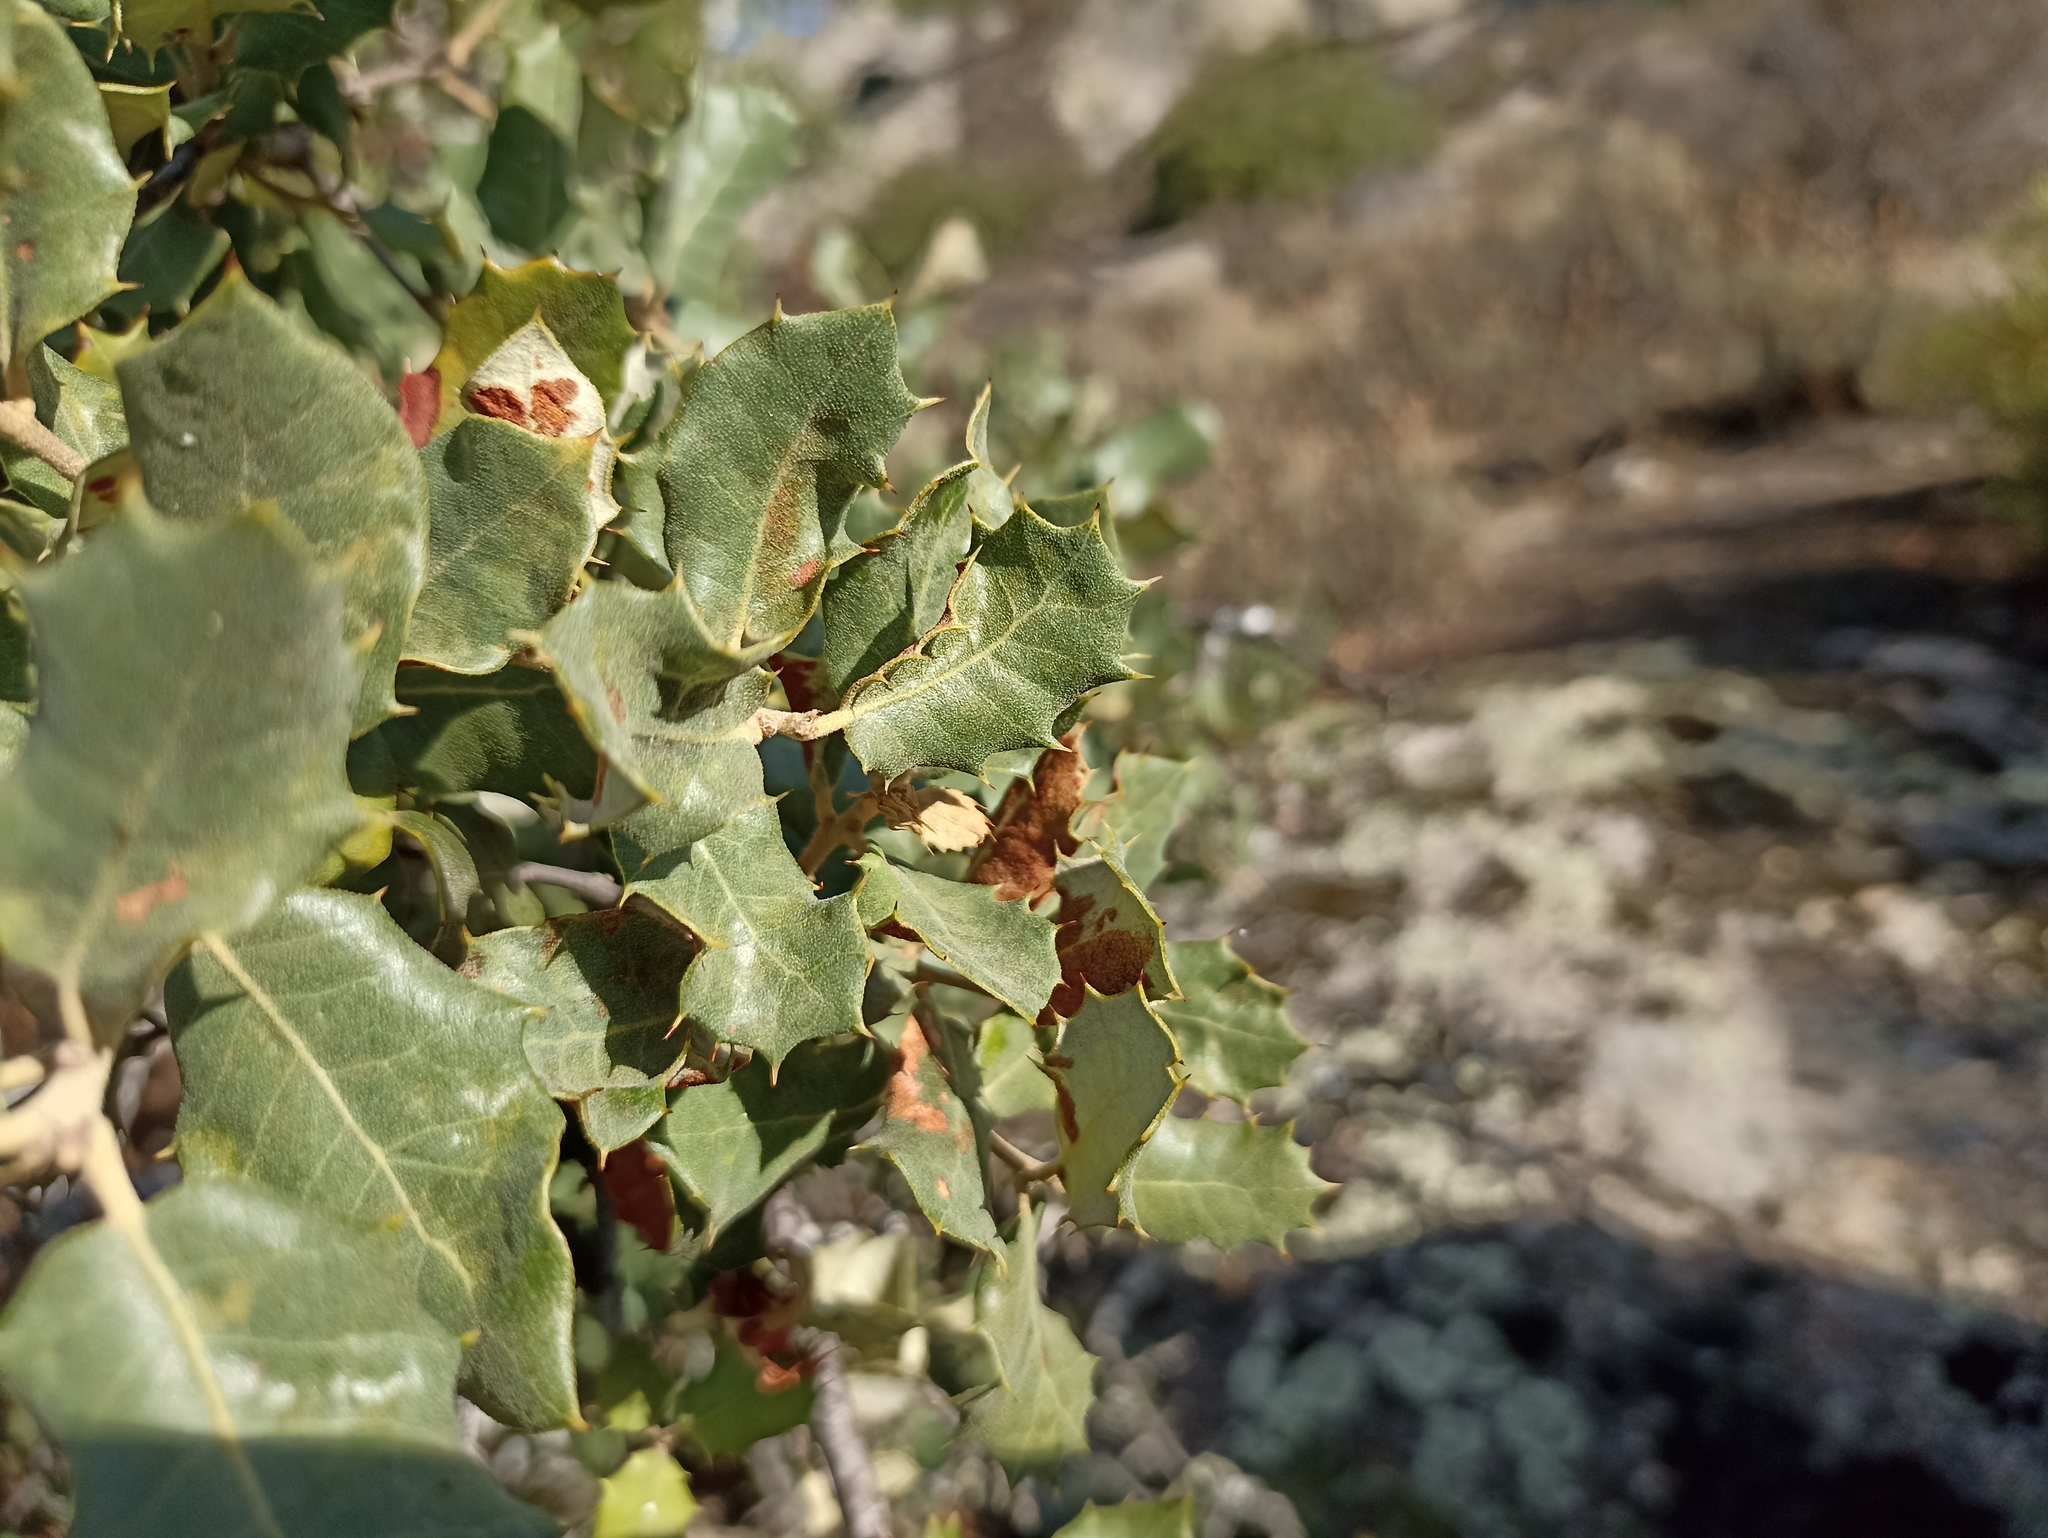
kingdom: Animalia
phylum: Arthropoda
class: Arachnida
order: Trombidiformes
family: Eriophyidae
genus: Aceria
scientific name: Aceria ilicis
